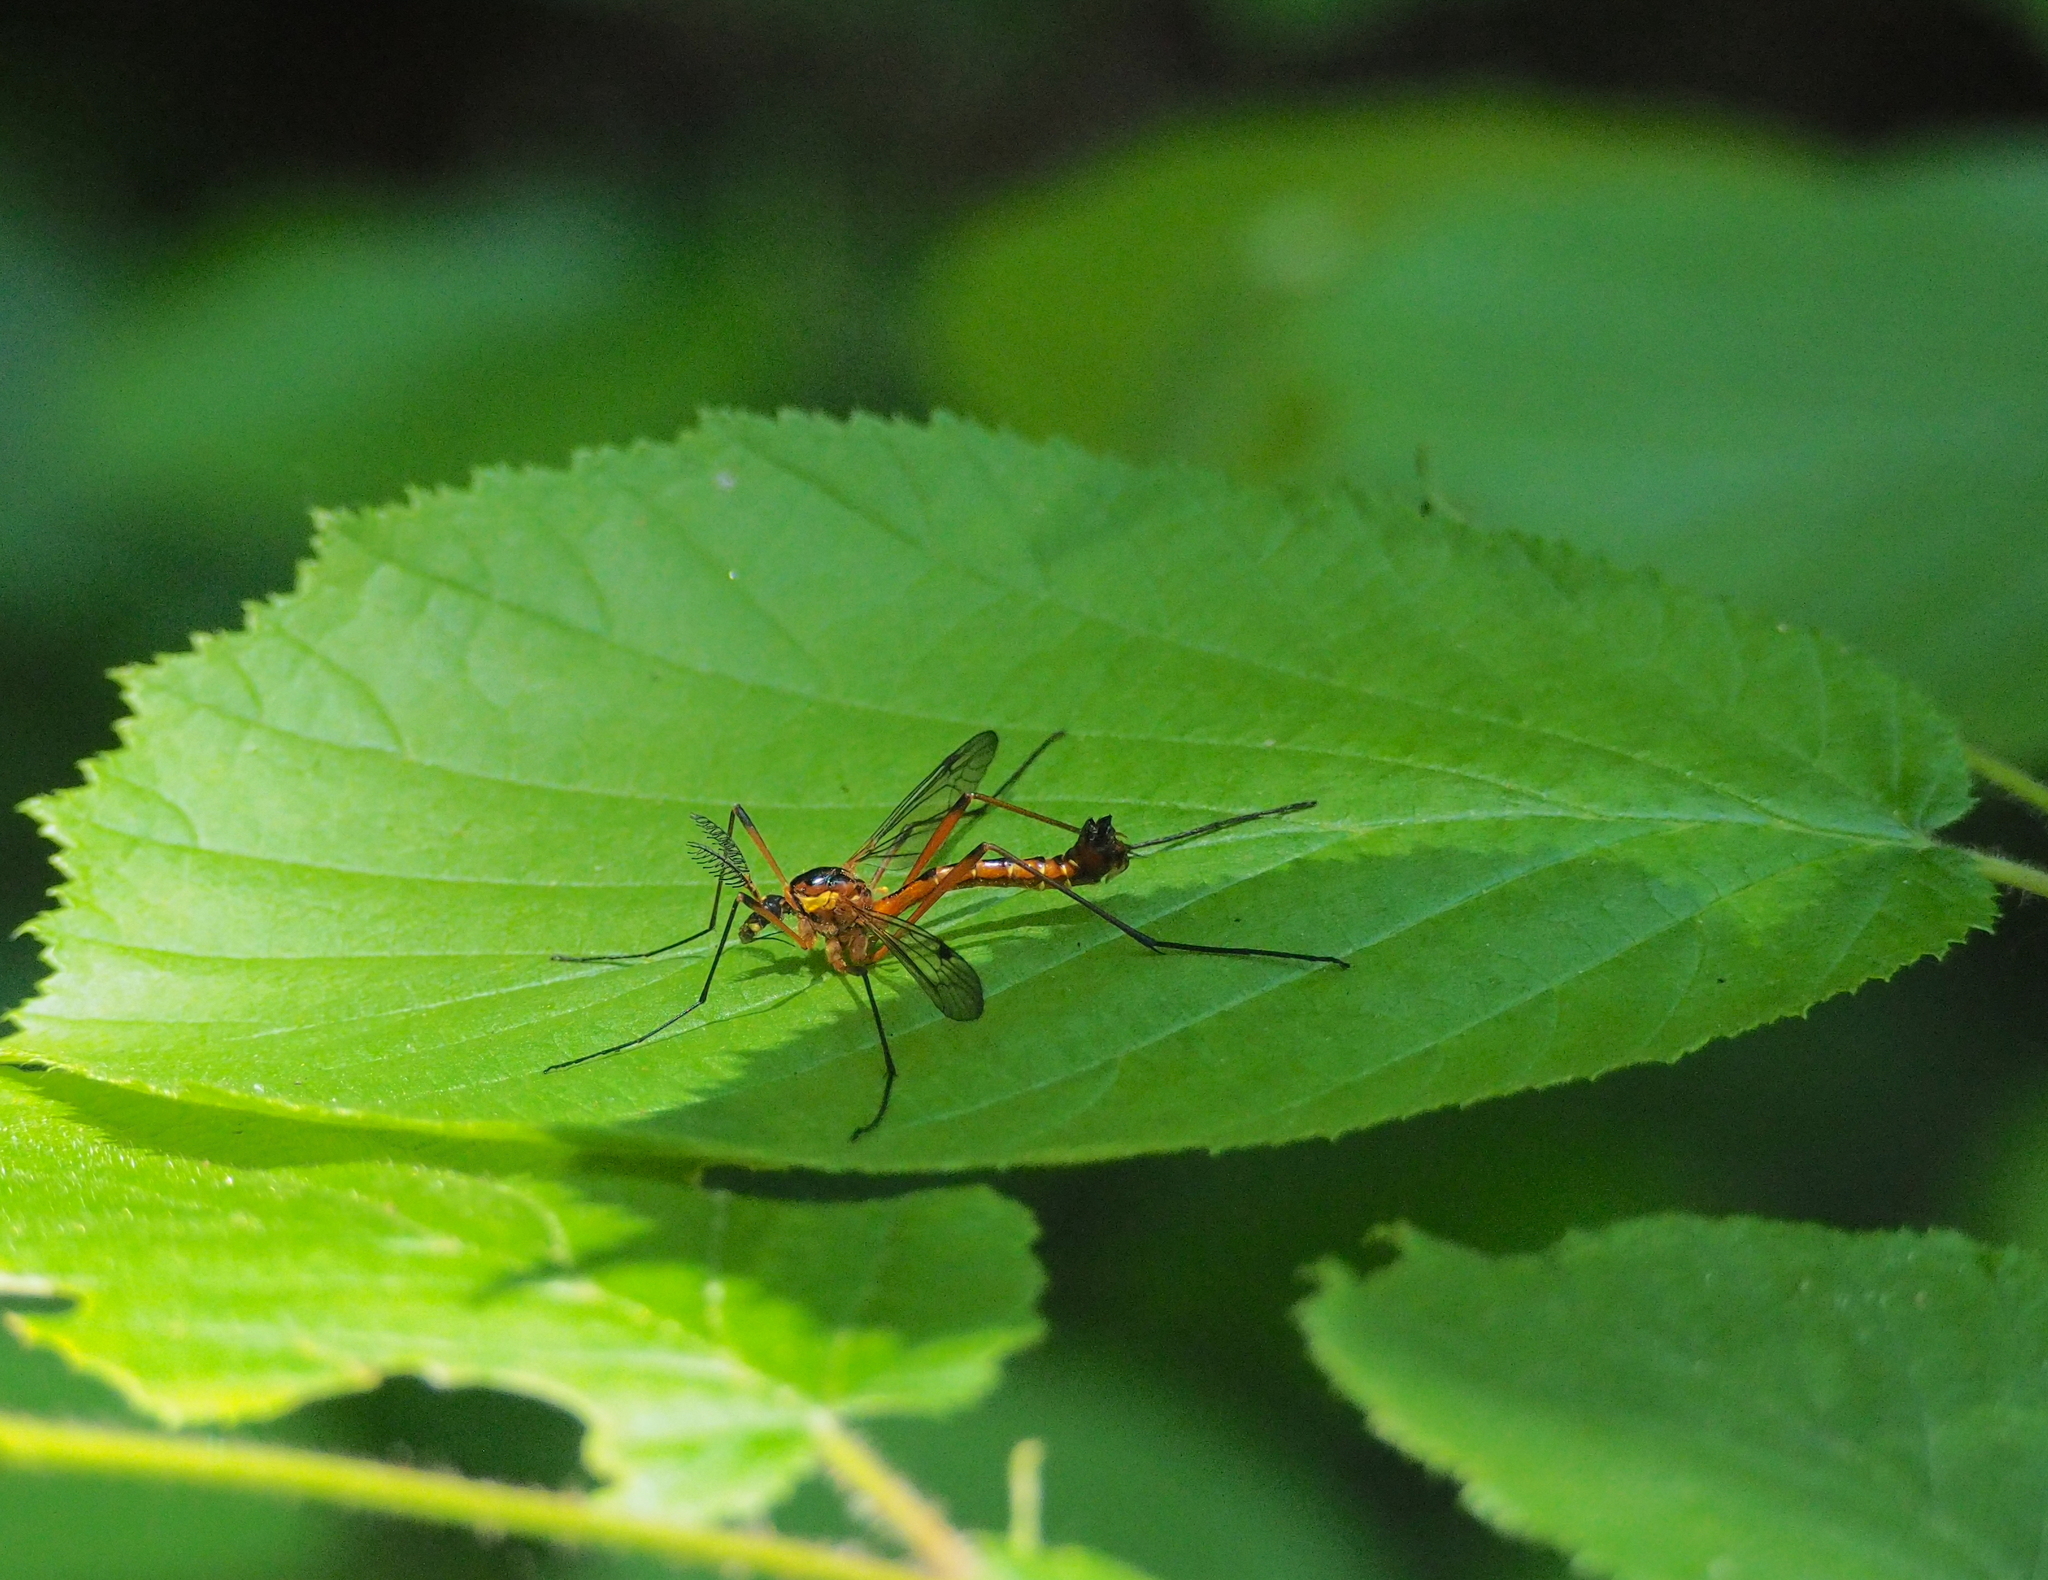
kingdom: Animalia
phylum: Arthropoda
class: Insecta
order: Diptera
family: Tipulidae
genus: Ctenophora
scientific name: Ctenophora pectinicornis
